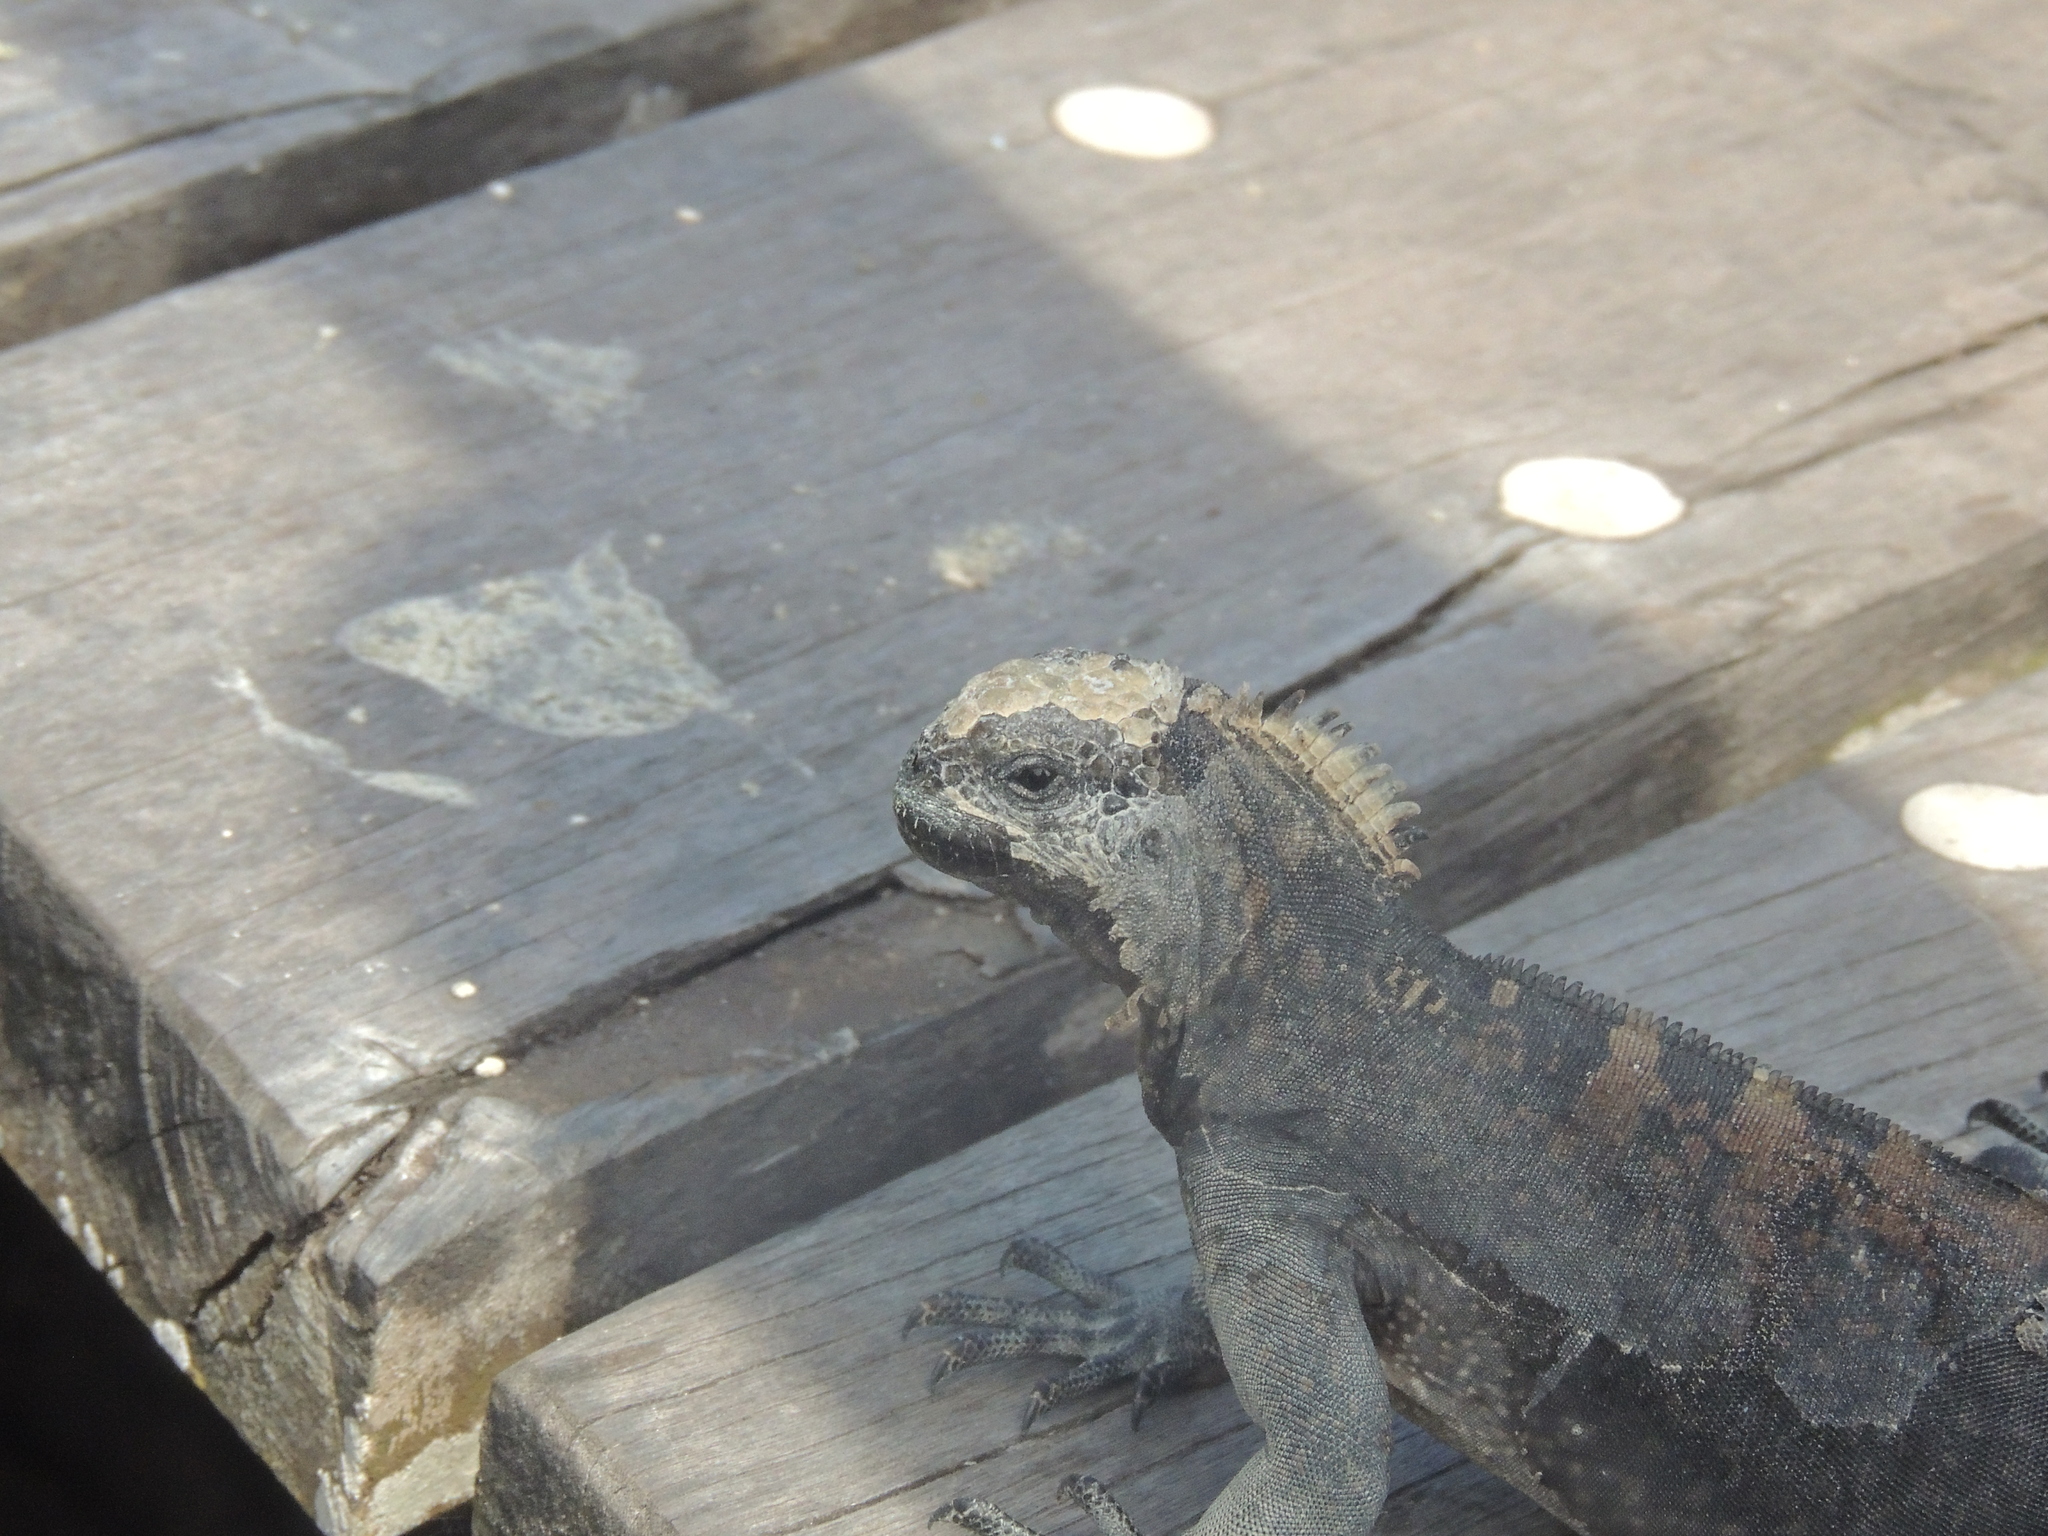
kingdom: Animalia
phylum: Chordata
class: Squamata
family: Iguanidae
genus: Amblyrhynchus
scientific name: Amblyrhynchus cristatus
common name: Marine iguana
